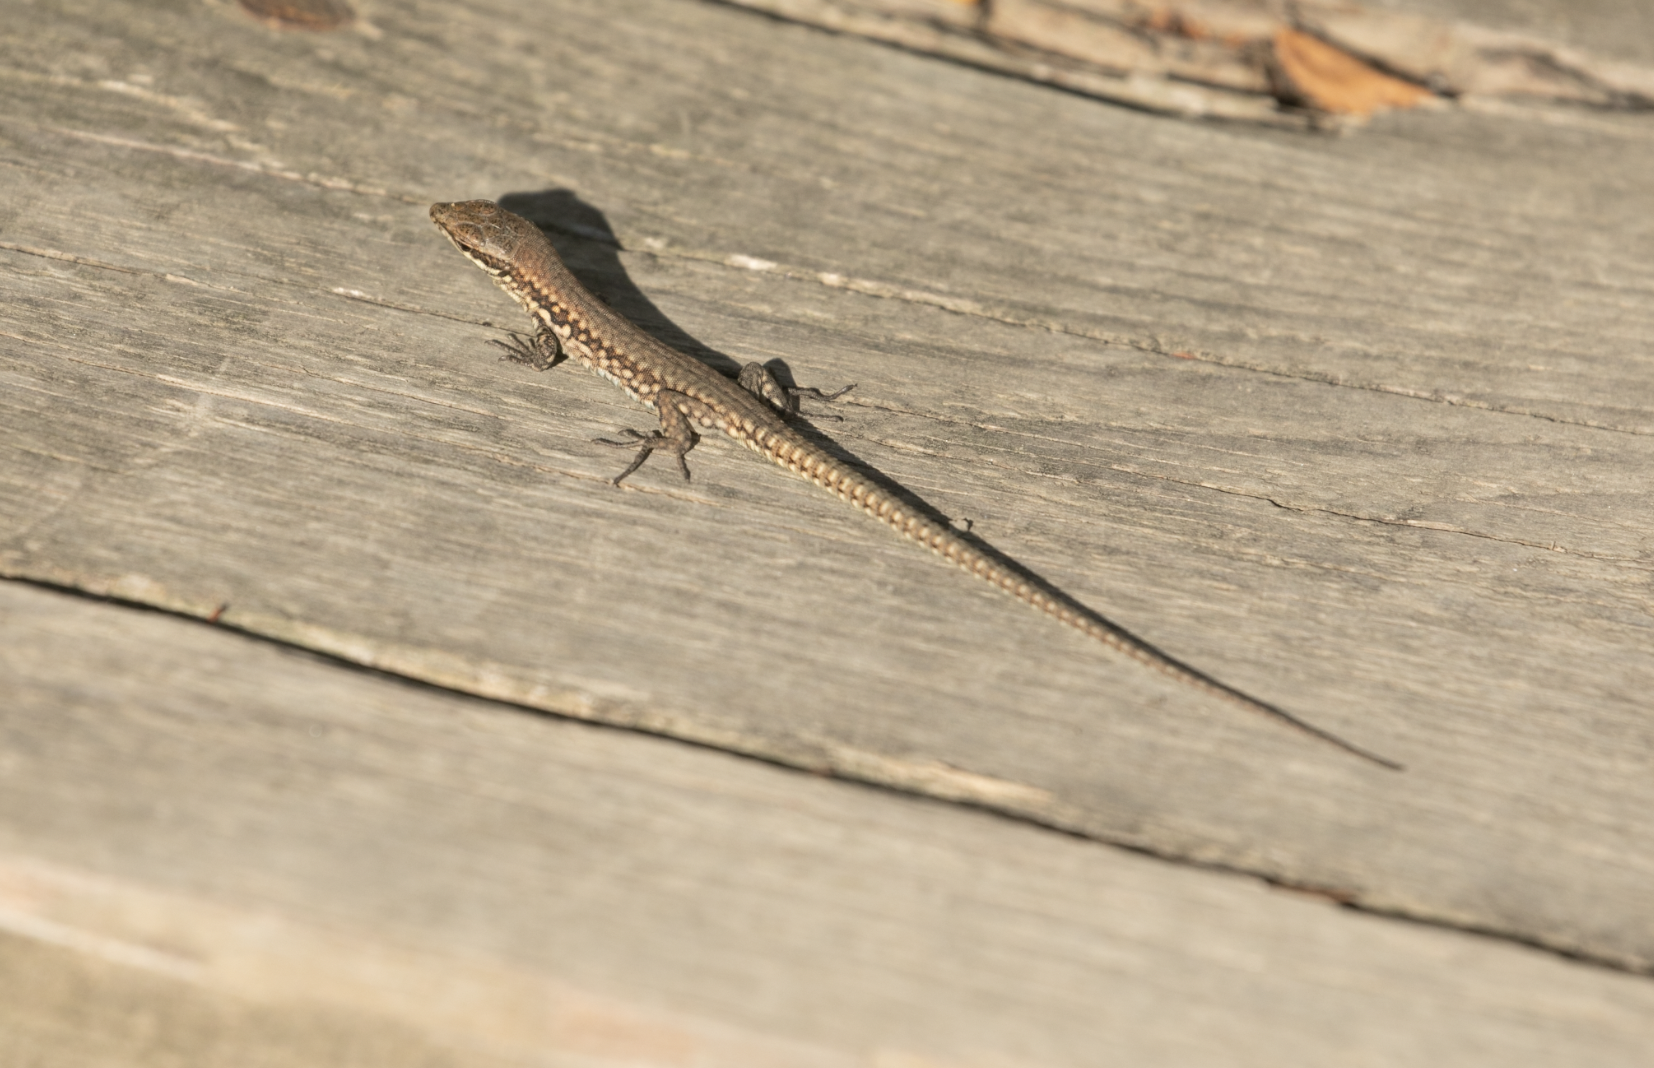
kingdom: Animalia
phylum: Chordata
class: Squamata
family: Lacertidae
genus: Podarcis
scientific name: Podarcis muralis
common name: Common wall lizard
